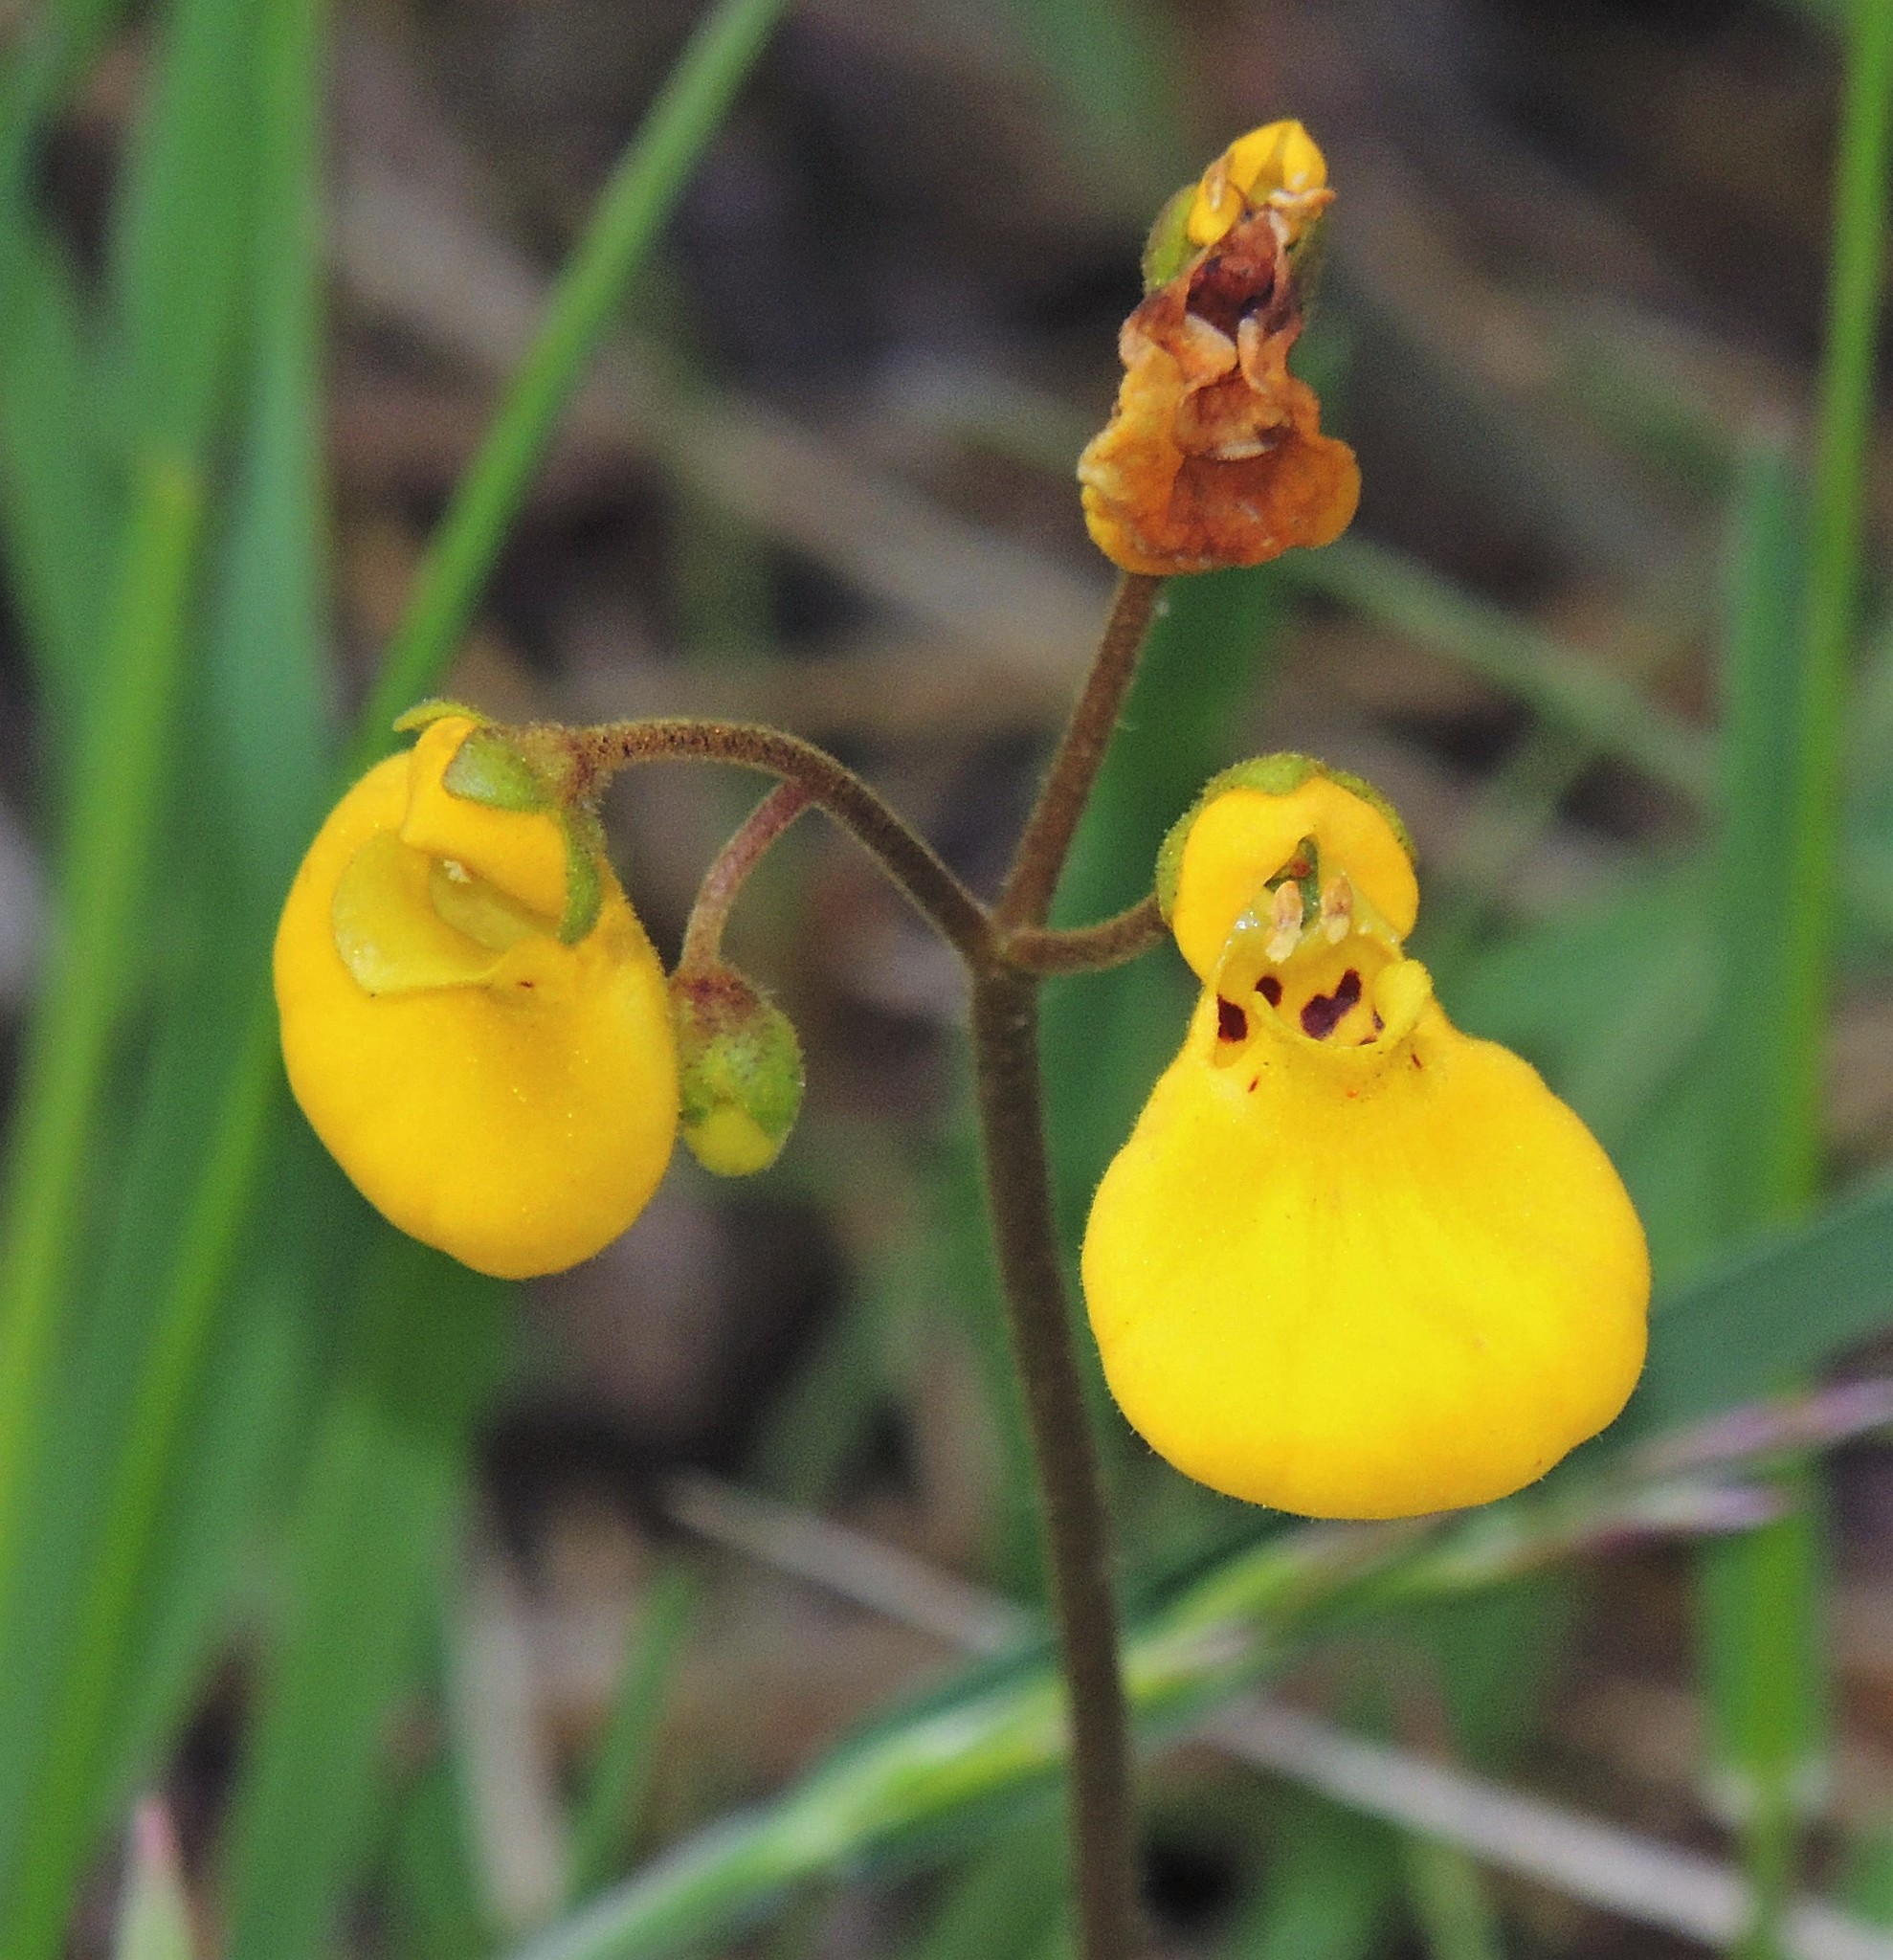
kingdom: Plantae
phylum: Tracheophyta
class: Magnoliopsida
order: Lamiales
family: Calceolariaceae
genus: Calceolaria
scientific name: Calceolaria biflora
